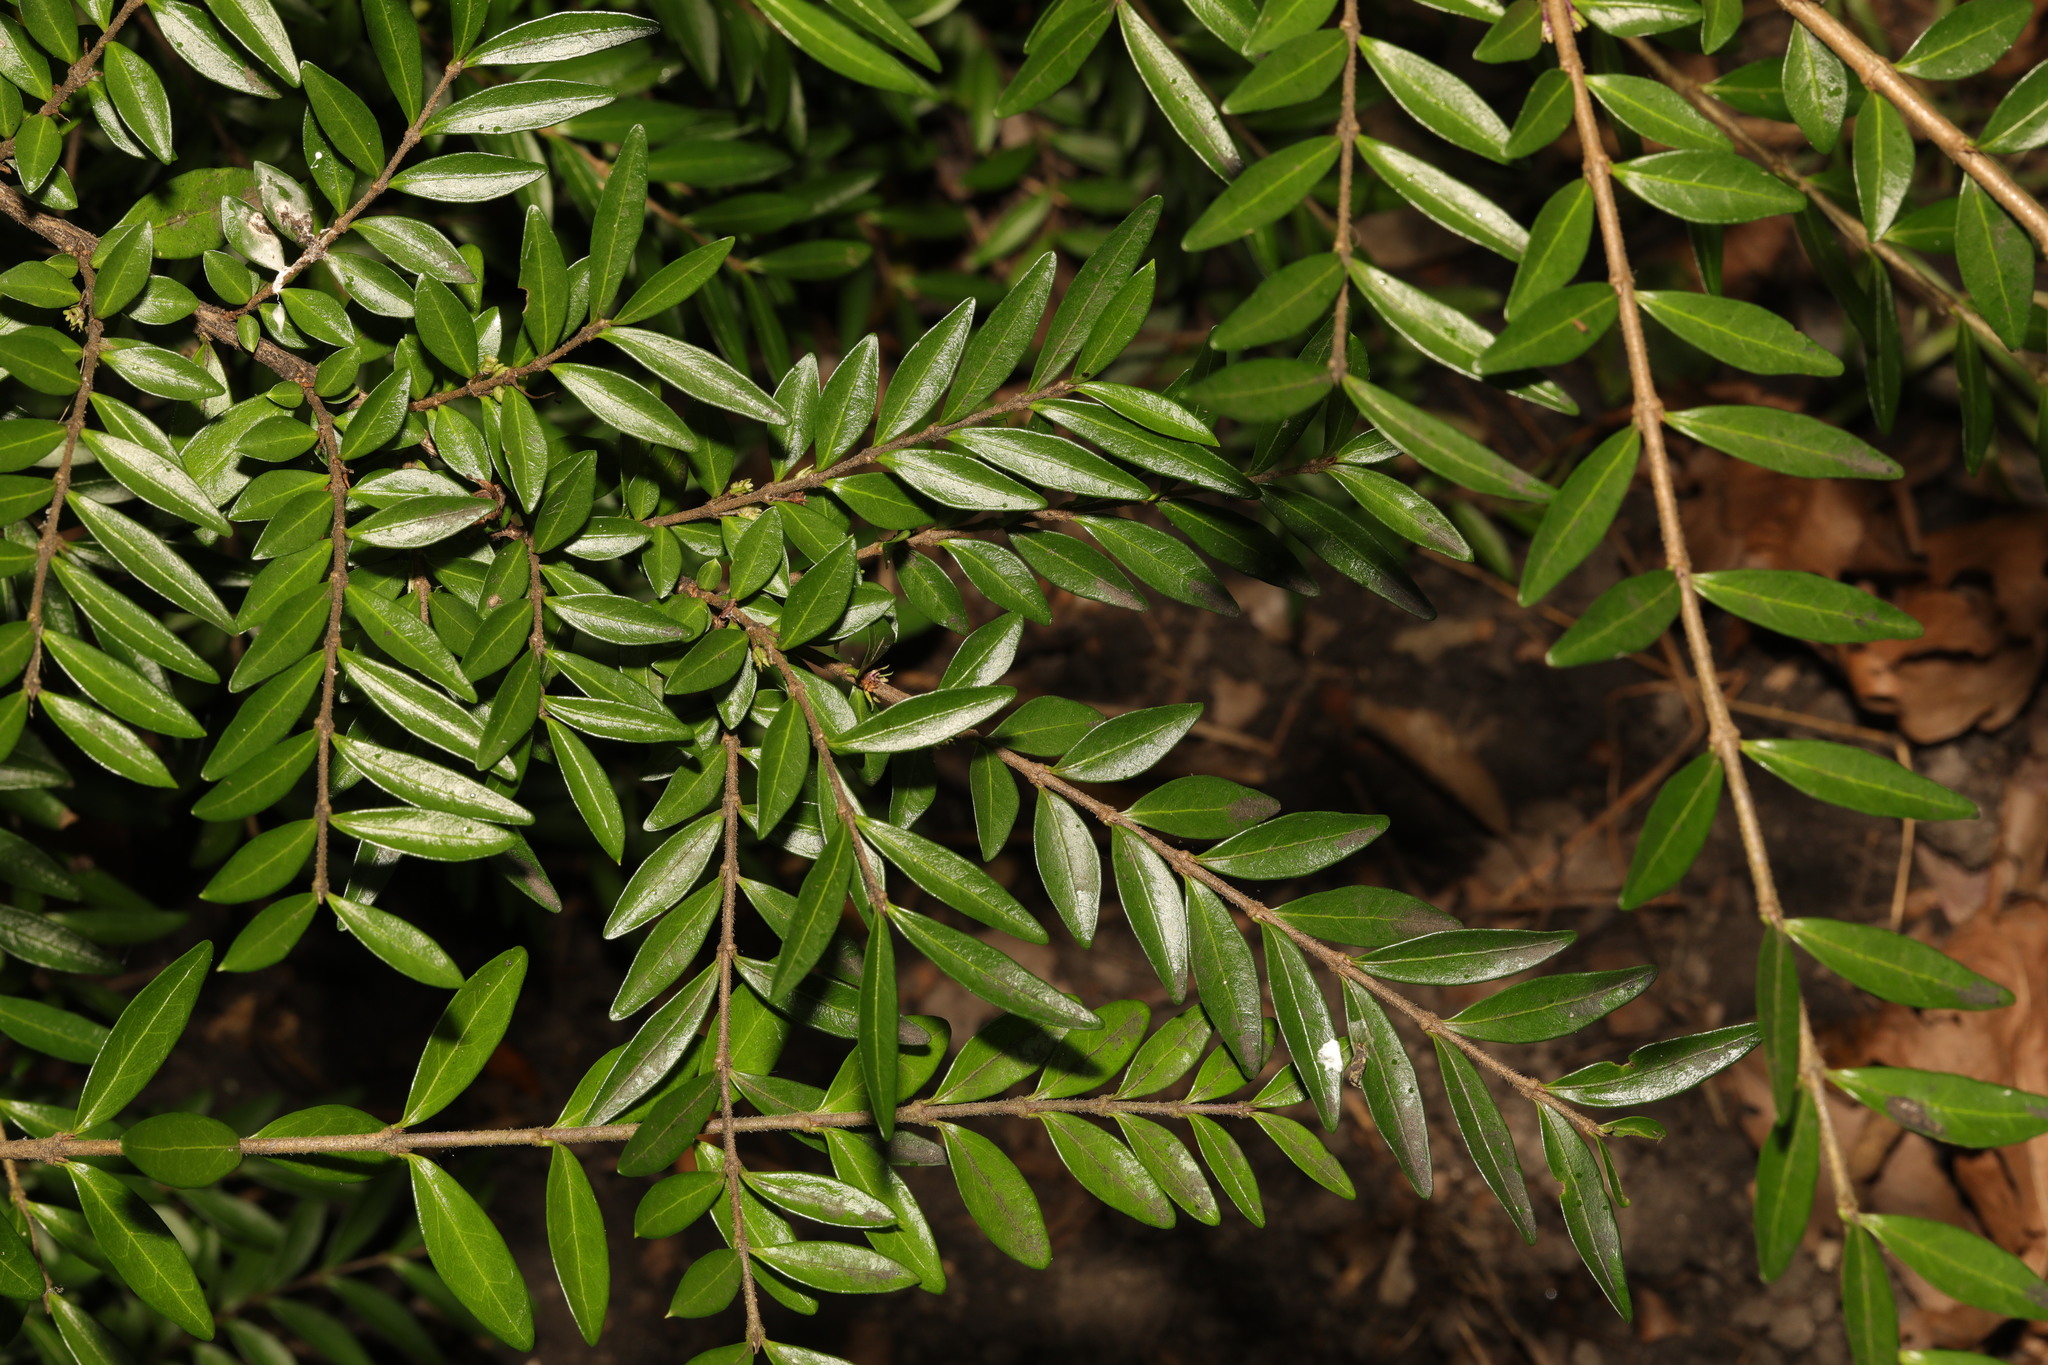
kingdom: Plantae
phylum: Tracheophyta
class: Magnoliopsida
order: Dipsacales
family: Caprifoliaceae
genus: Lonicera
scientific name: Lonicera pileata
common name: Box-leaved honeysuckle
